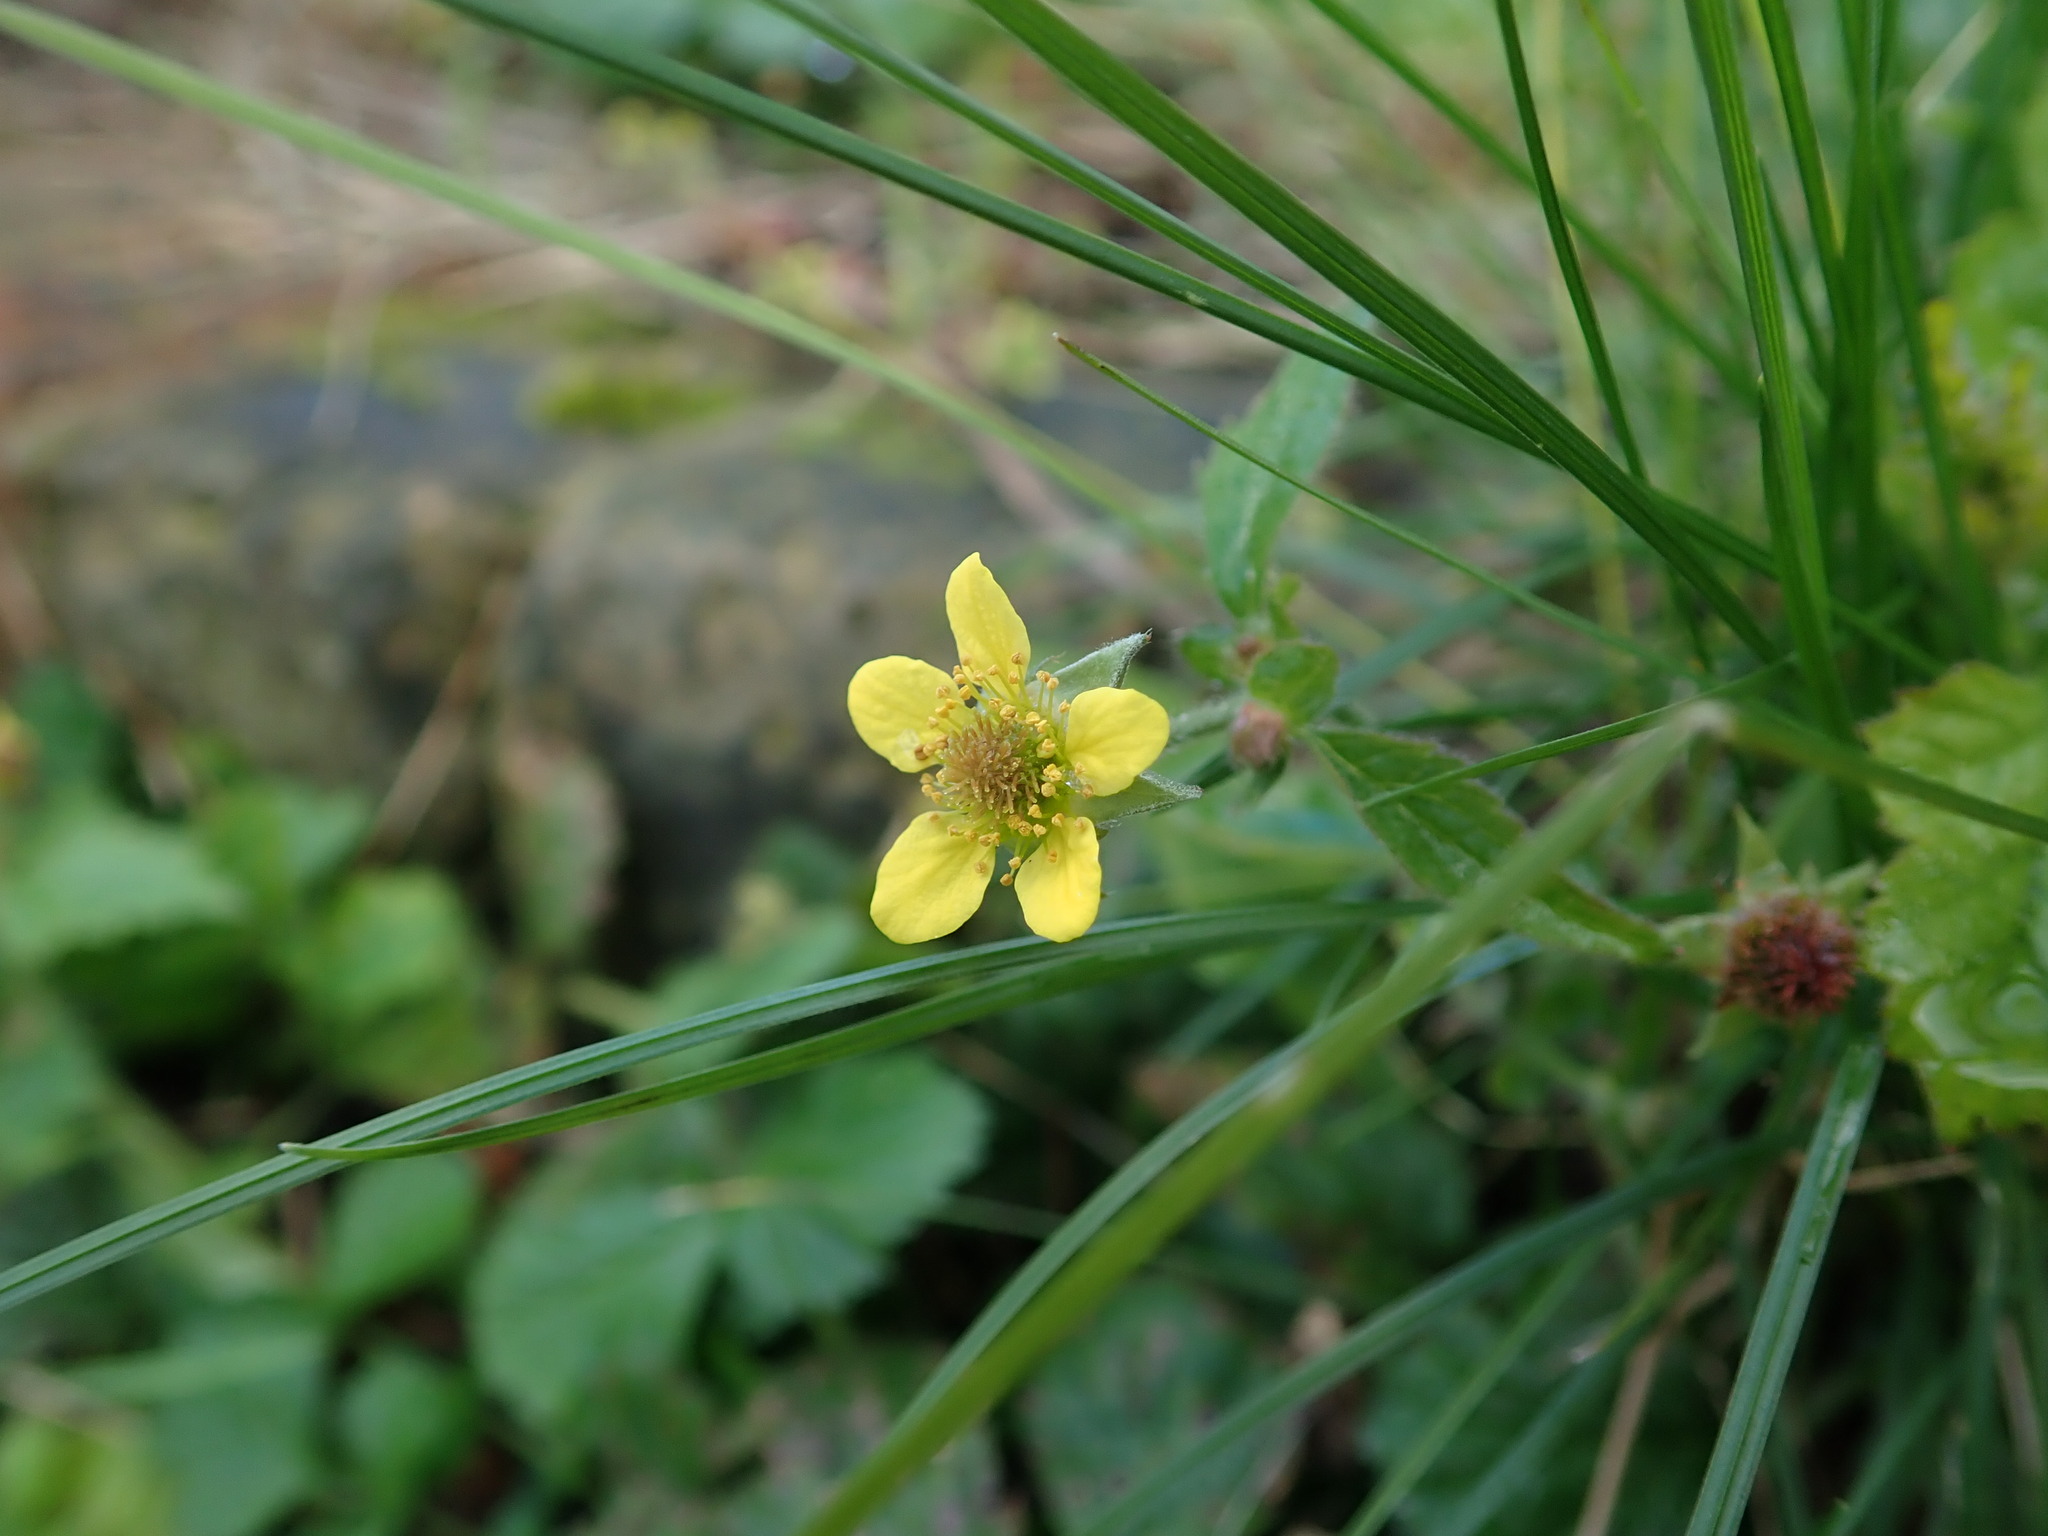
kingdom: Plantae
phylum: Tracheophyta
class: Magnoliopsida
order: Rosales
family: Rosaceae
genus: Geum
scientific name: Geum urbanum
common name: Wood avens
